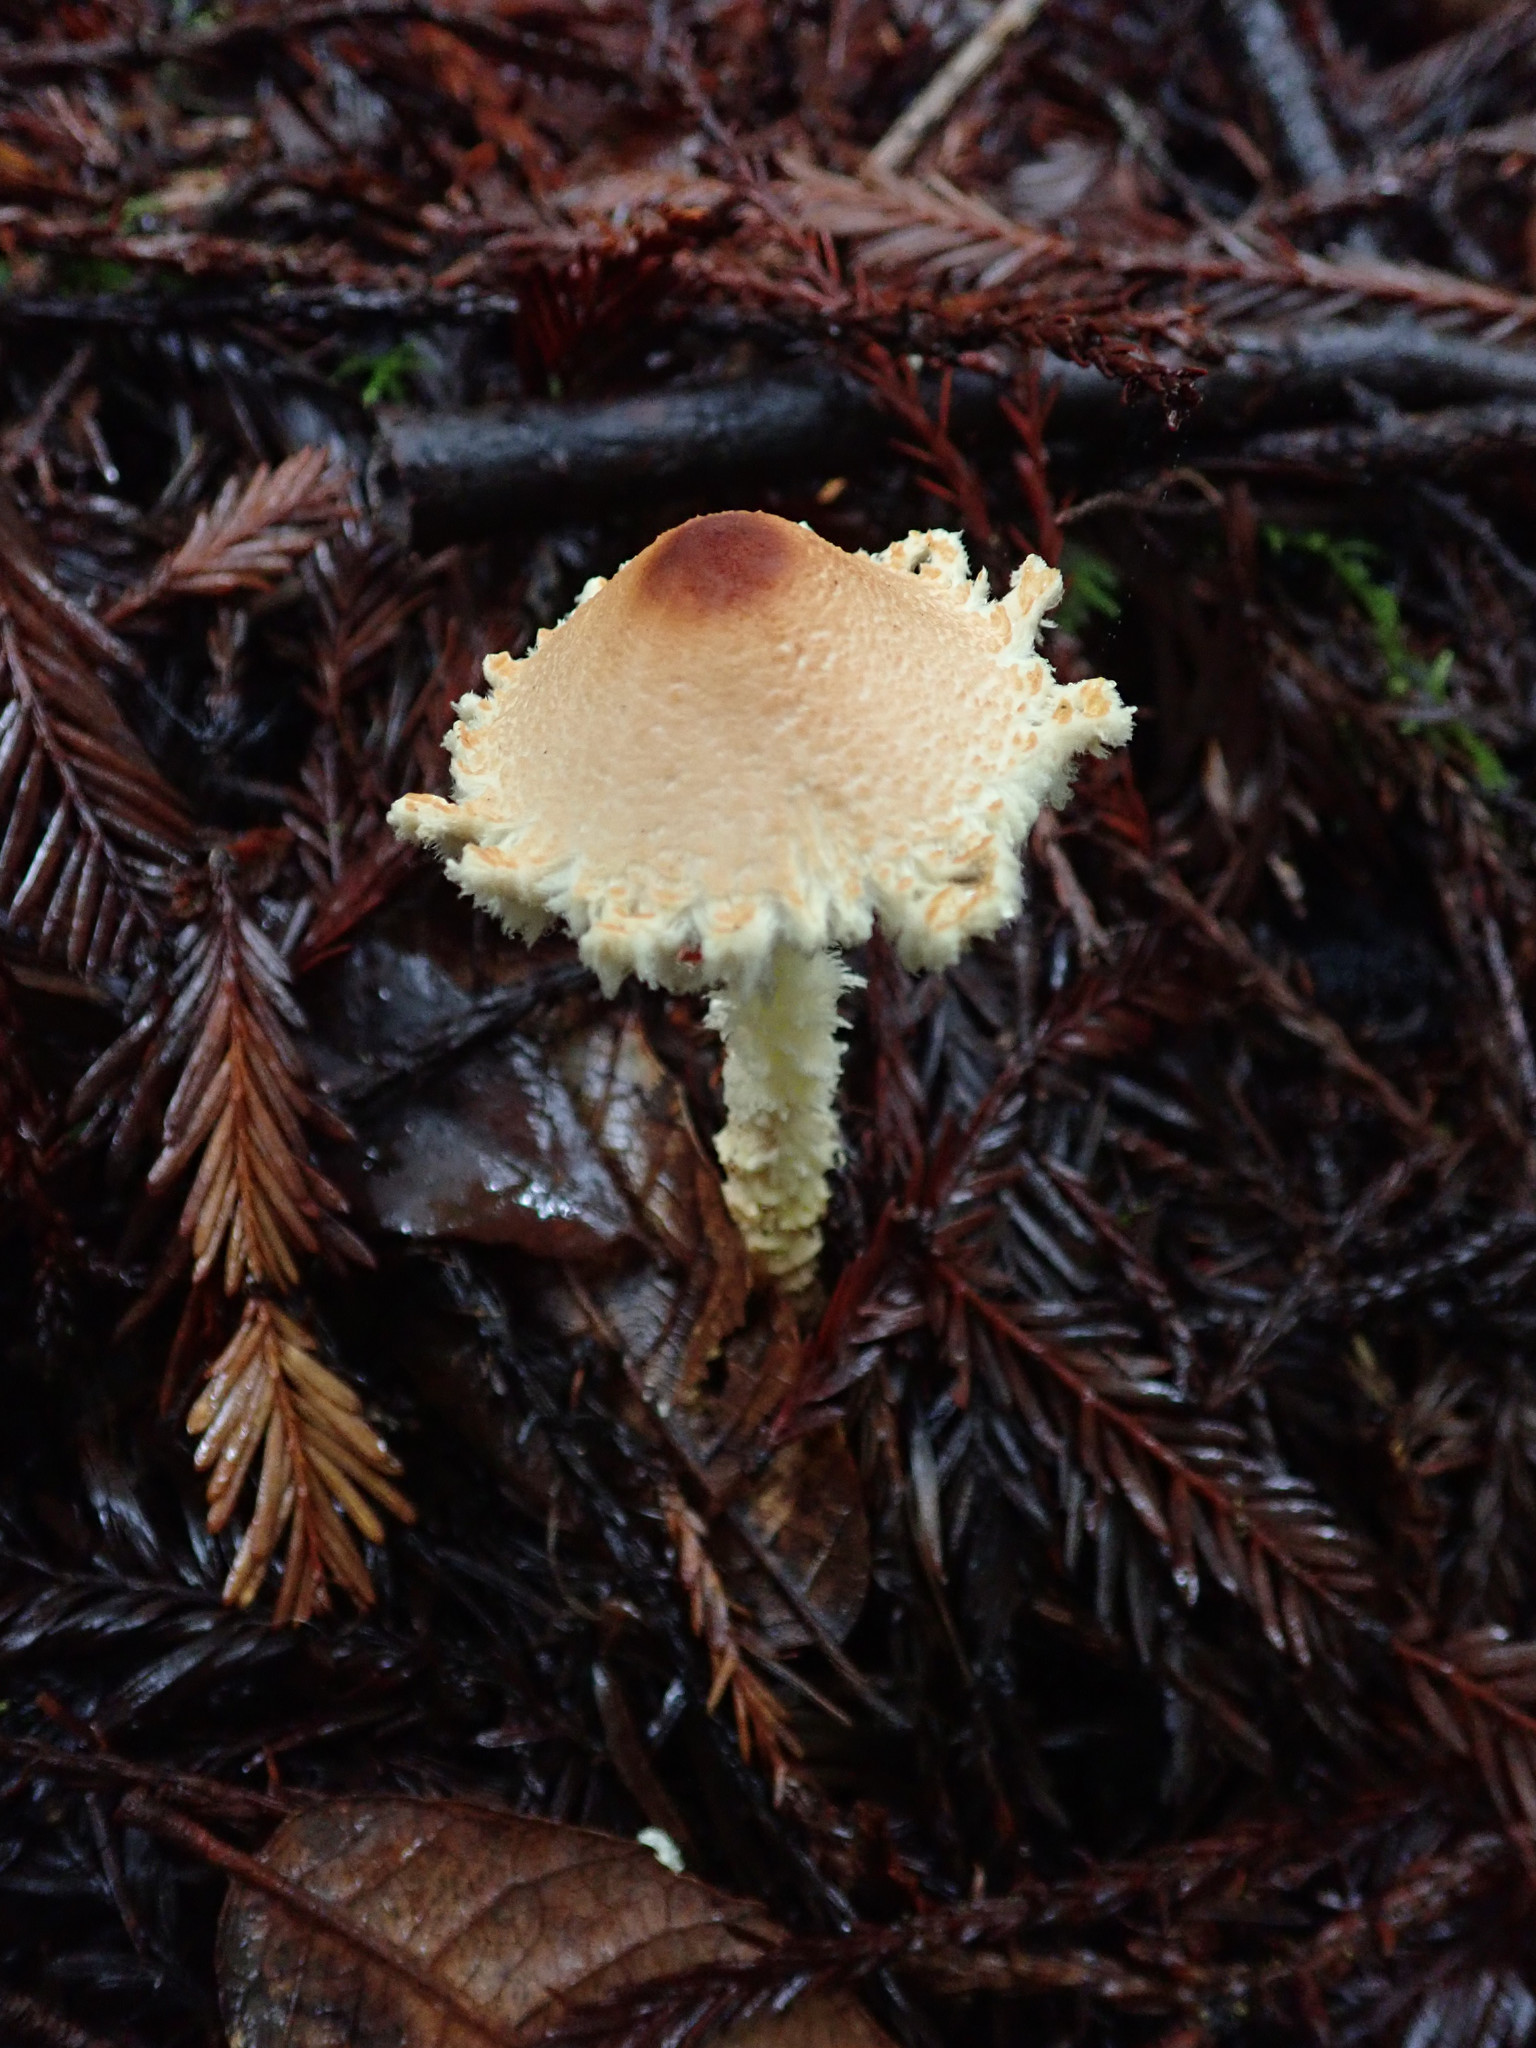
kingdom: Fungi
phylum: Basidiomycota
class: Agaricomycetes
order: Agaricales
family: Agaricaceae
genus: Lepiota
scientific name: Lepiota magnispora
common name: Yellowfoot dapperling
